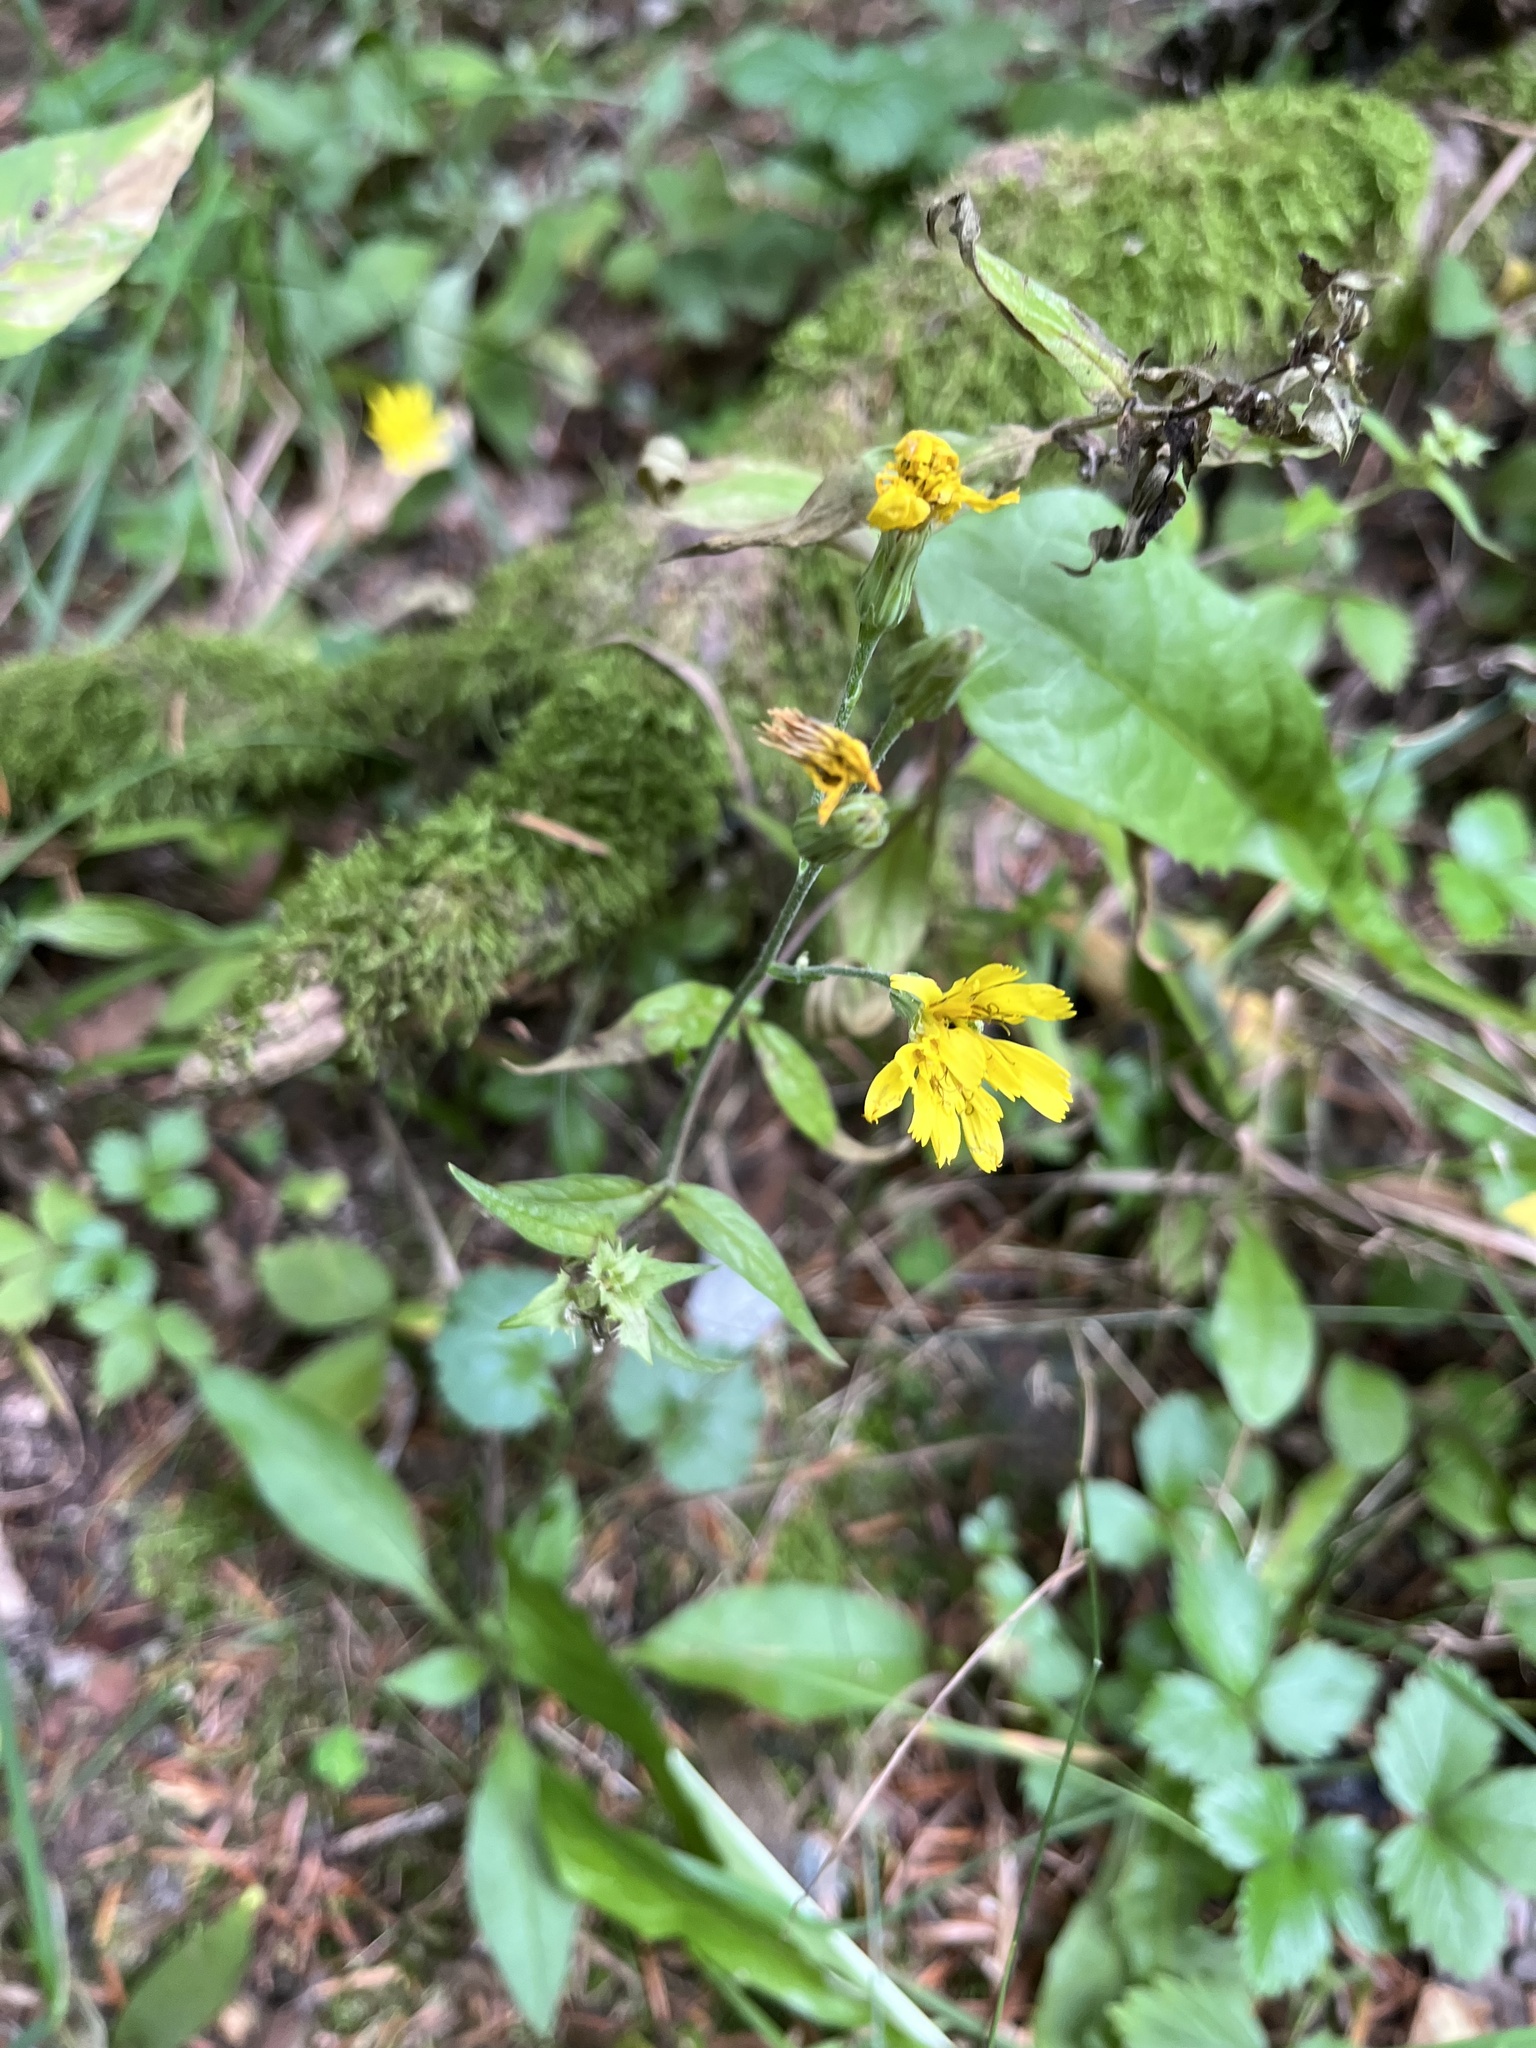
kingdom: Plantae
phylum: Tracheophyta
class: Magnoliopsida
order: Asterales
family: Asteraceae
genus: Hieracium
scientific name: Hieracium lachenalii
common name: Common hawkweed
